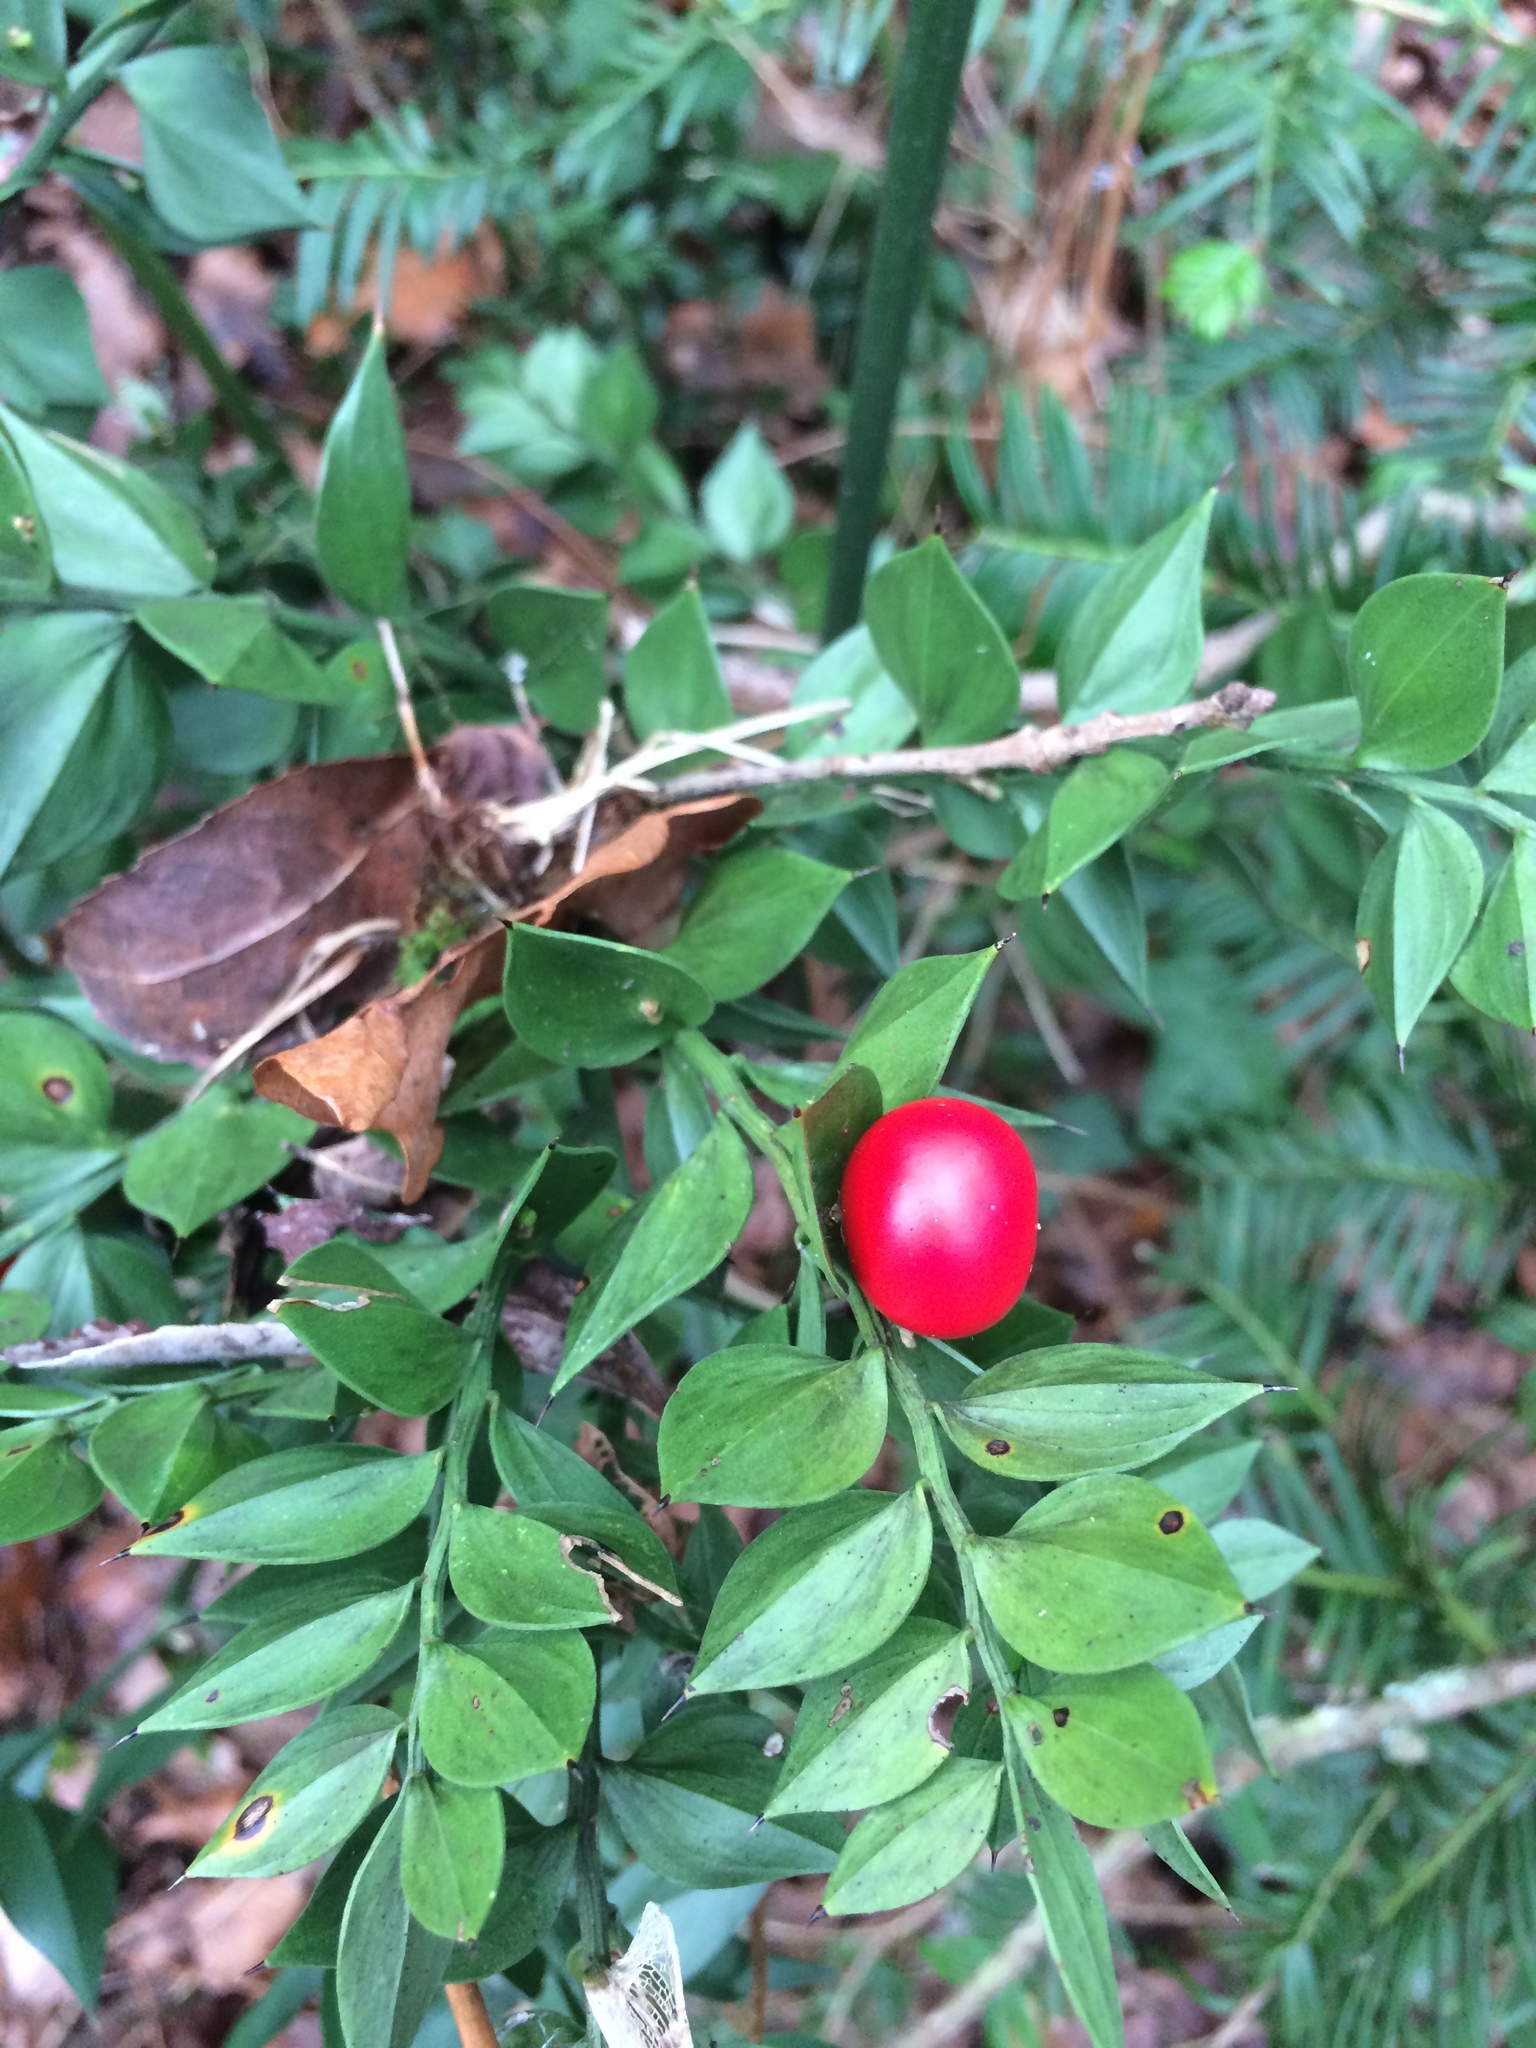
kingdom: Plantae
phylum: Tracheophyta
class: Liliopsida
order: Asparagales
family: Asparagaceae
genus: Ruscus
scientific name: Ruscus aculeatus
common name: Butcher's-broom
